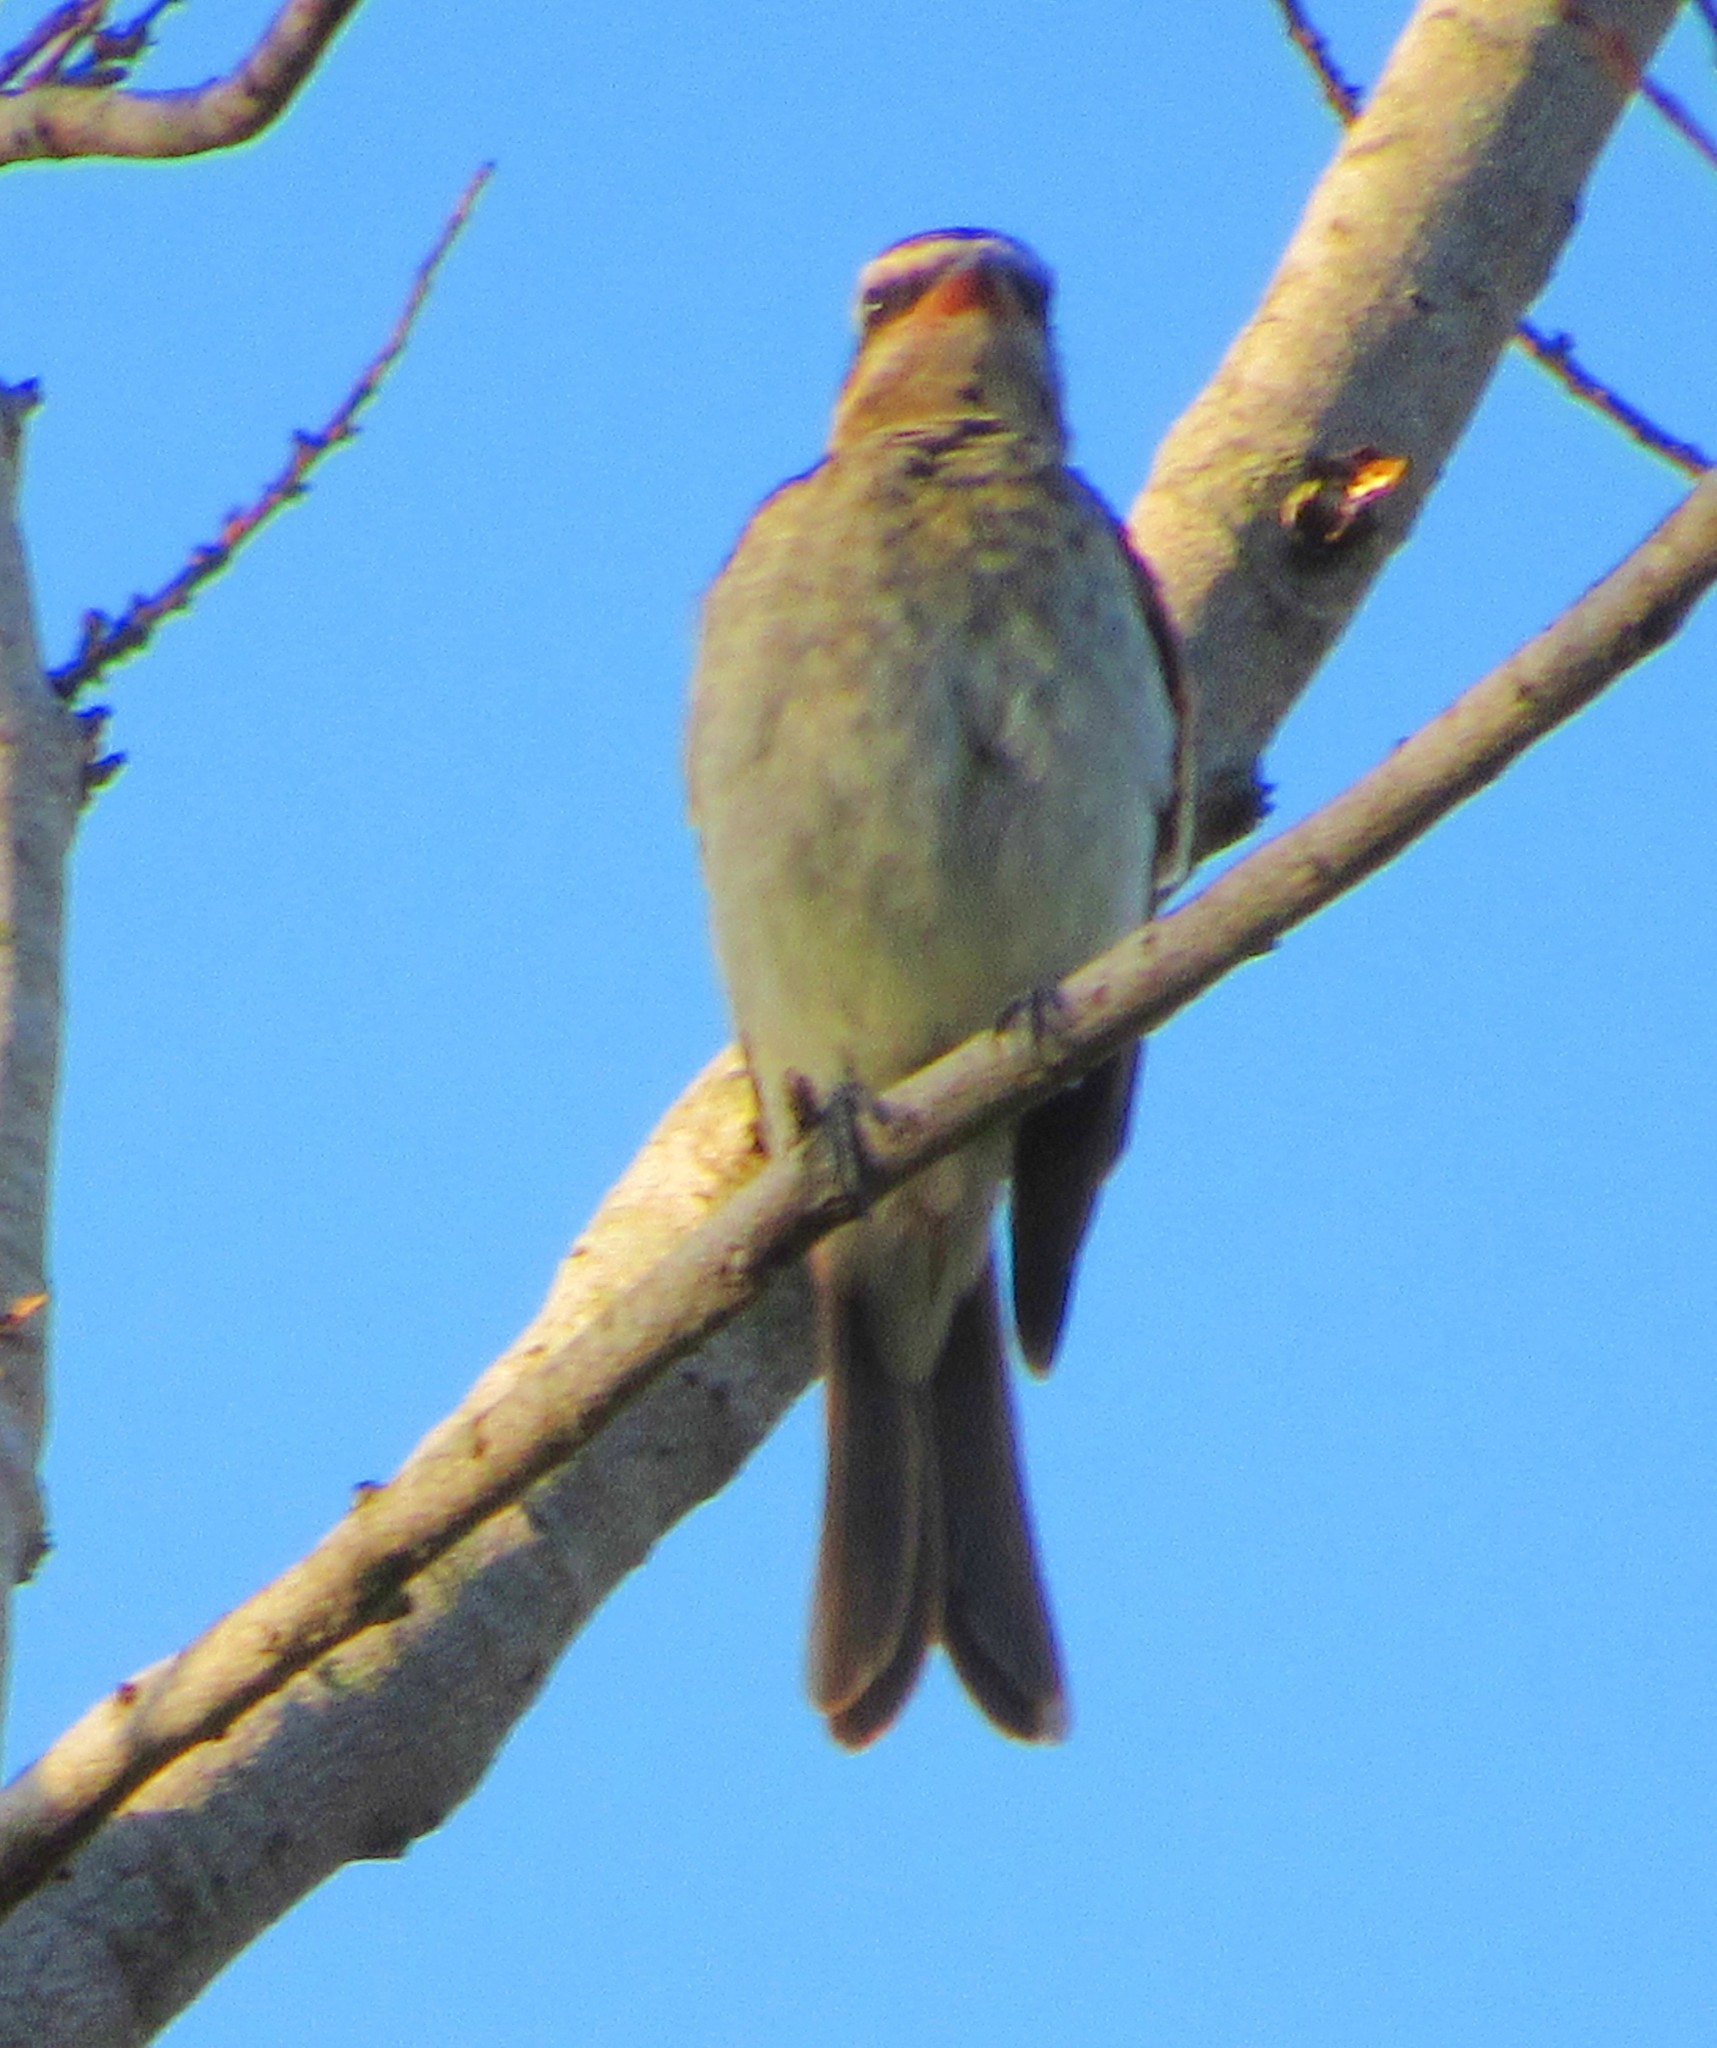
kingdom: Animalia
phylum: Chordata
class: Aves
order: Passeriformes
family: Tyrannidae
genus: Legatus
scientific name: Legatus leucophaius
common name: Piratic flycatcher
